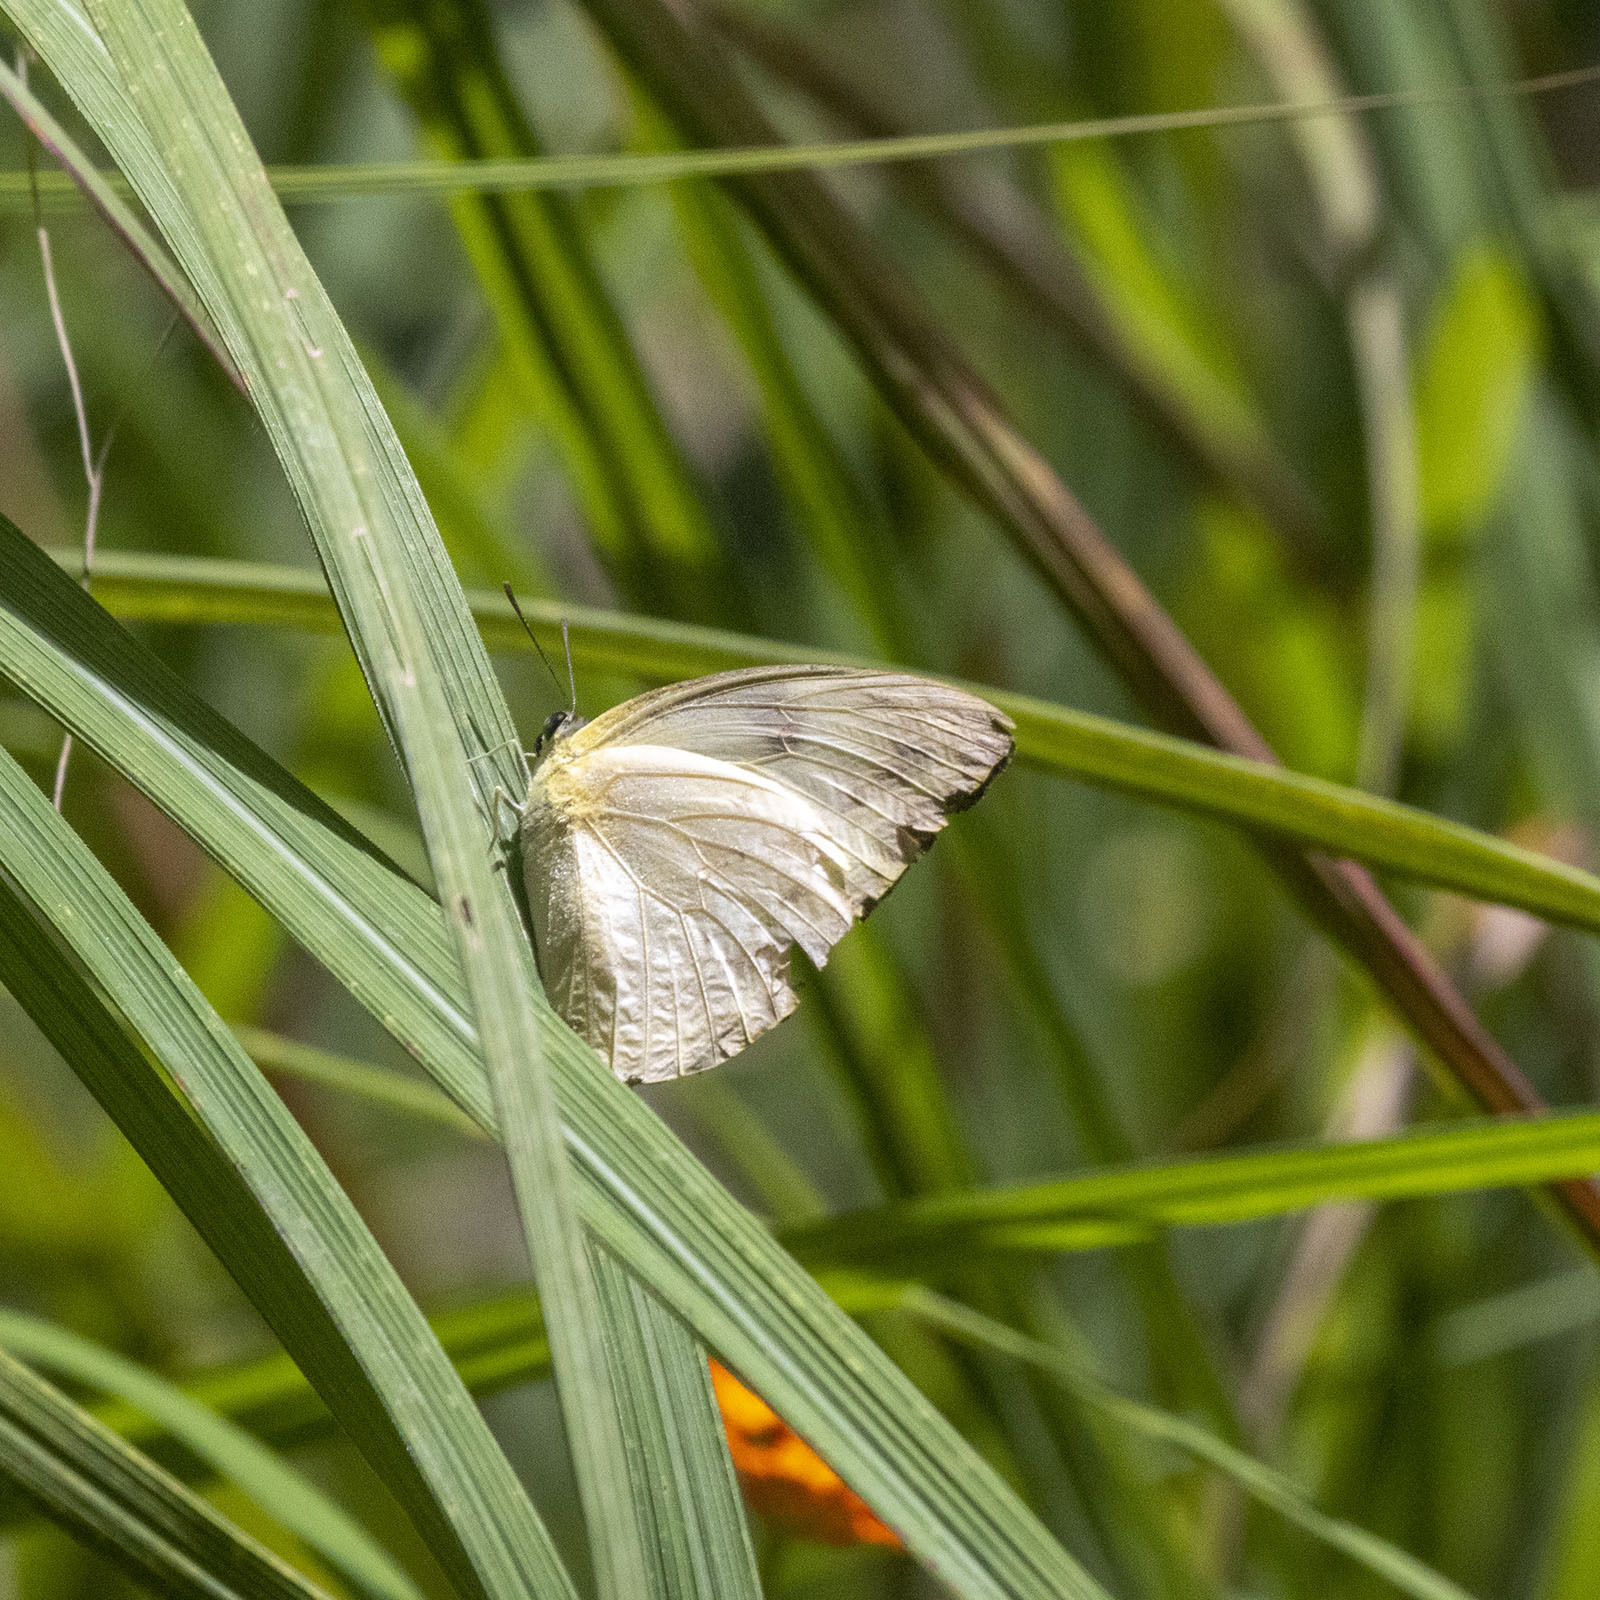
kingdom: Animalia
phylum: Arthropoda
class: Insecta
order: Lepidoptera
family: Pieridae
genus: Catopsilia
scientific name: Catopsilia pomona
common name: Common emigrant
